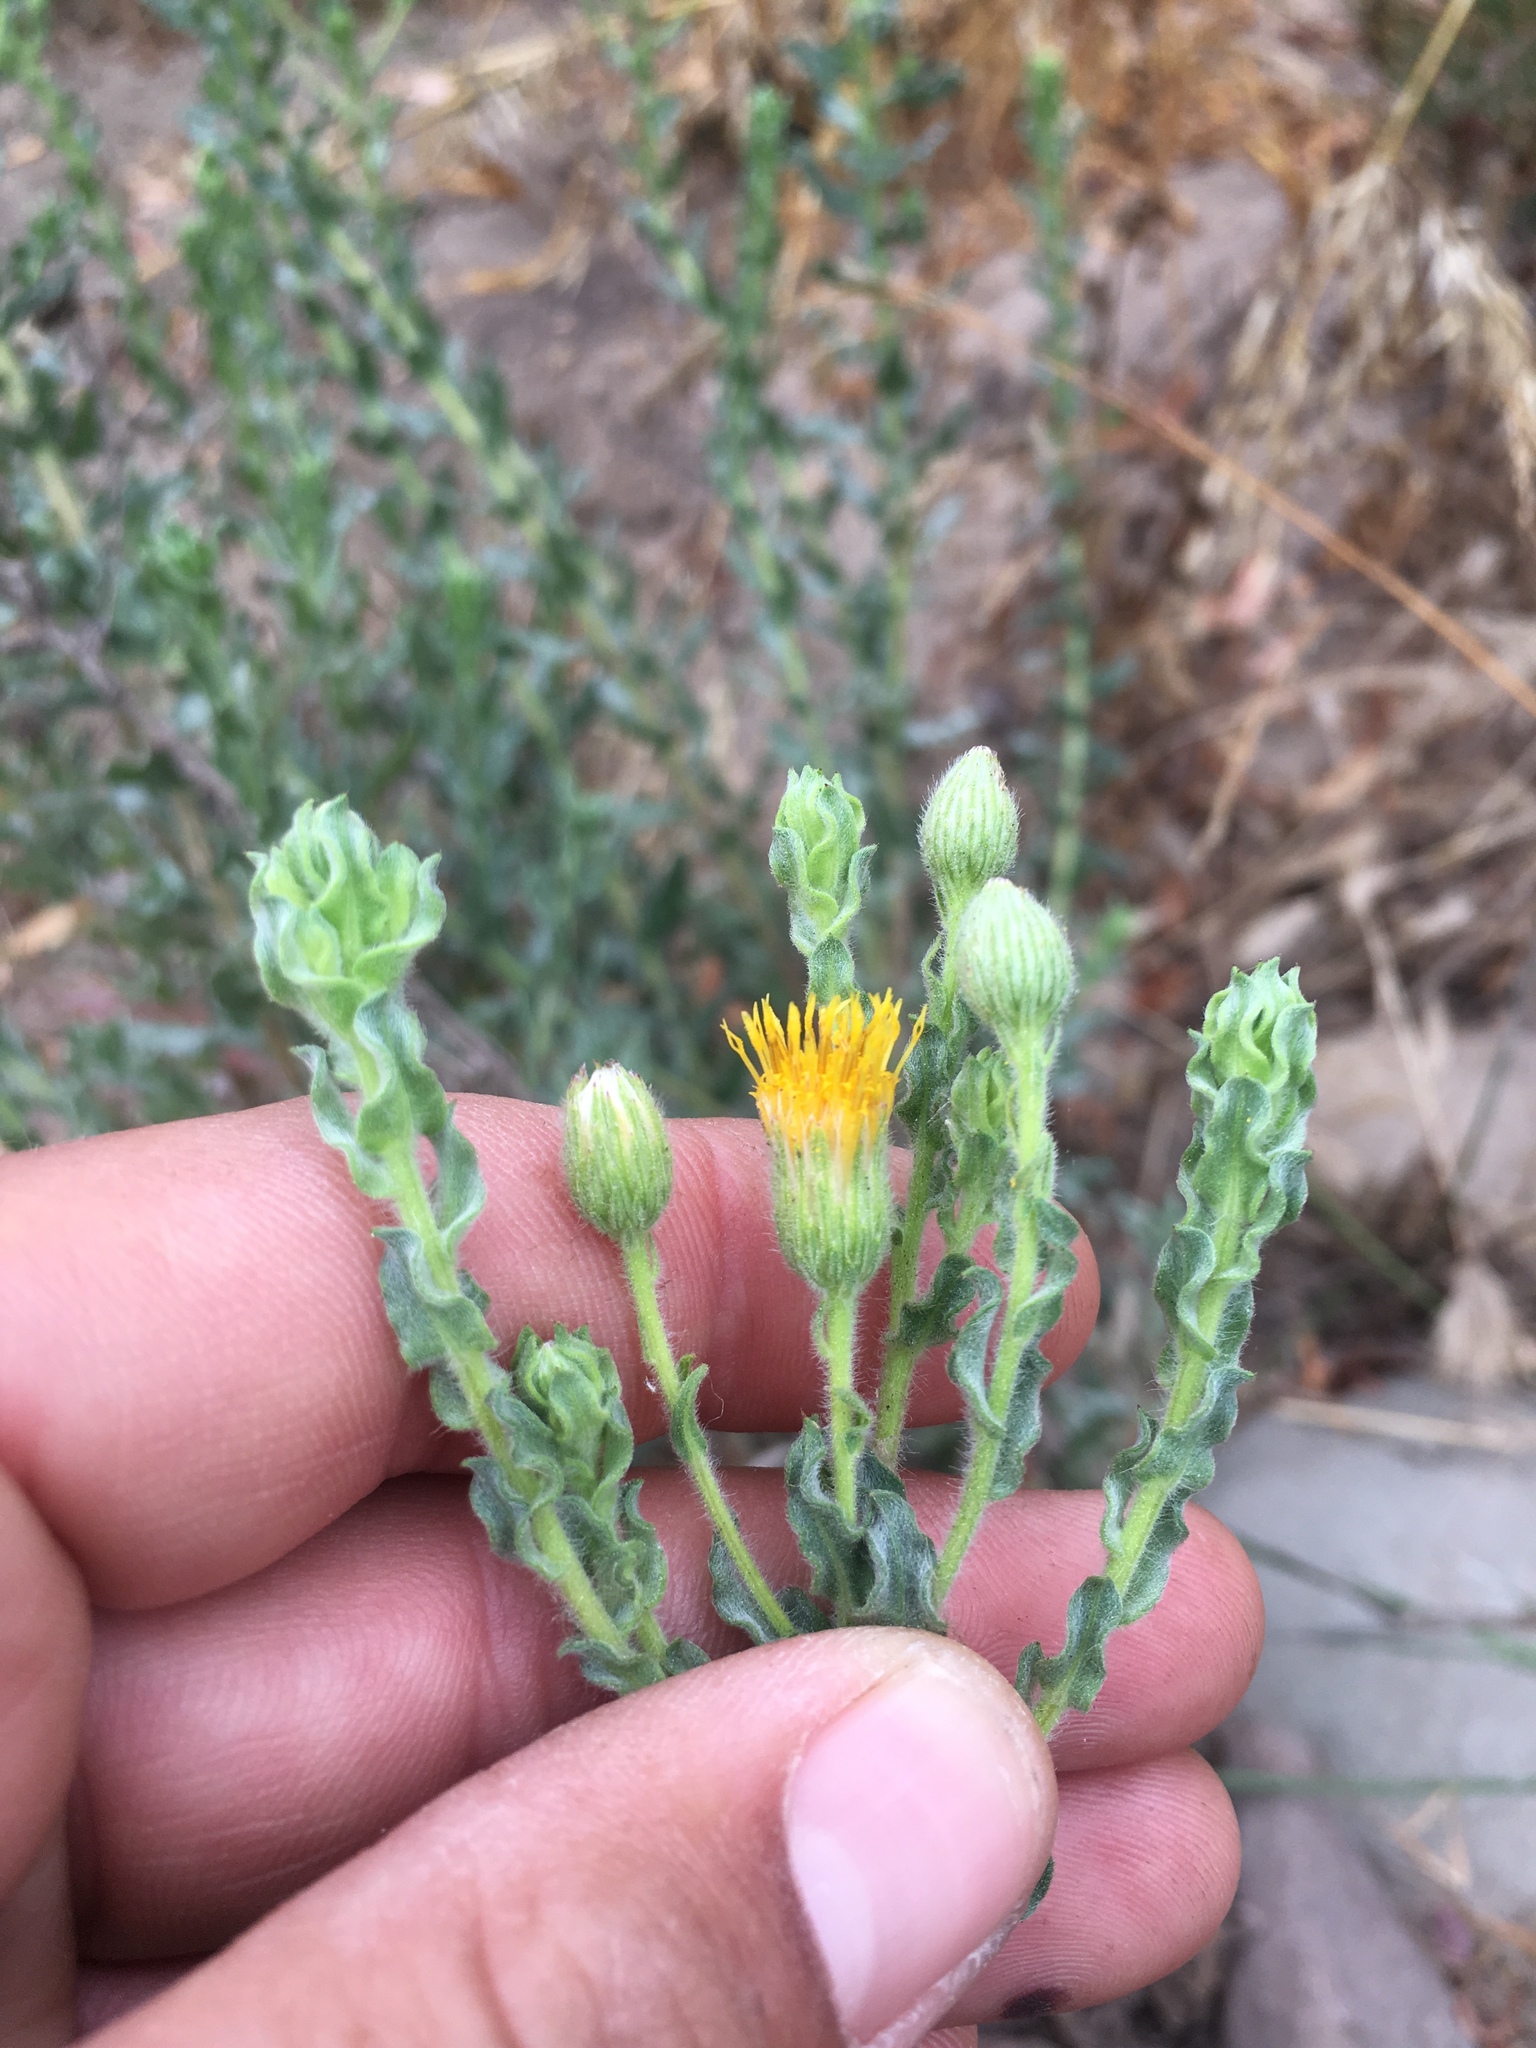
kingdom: Plantae
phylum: Tracheophyta
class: Magnoliopsida
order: Asterales
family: Asteraceae
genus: Heterotheca
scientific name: Heterotheca fastigiata
